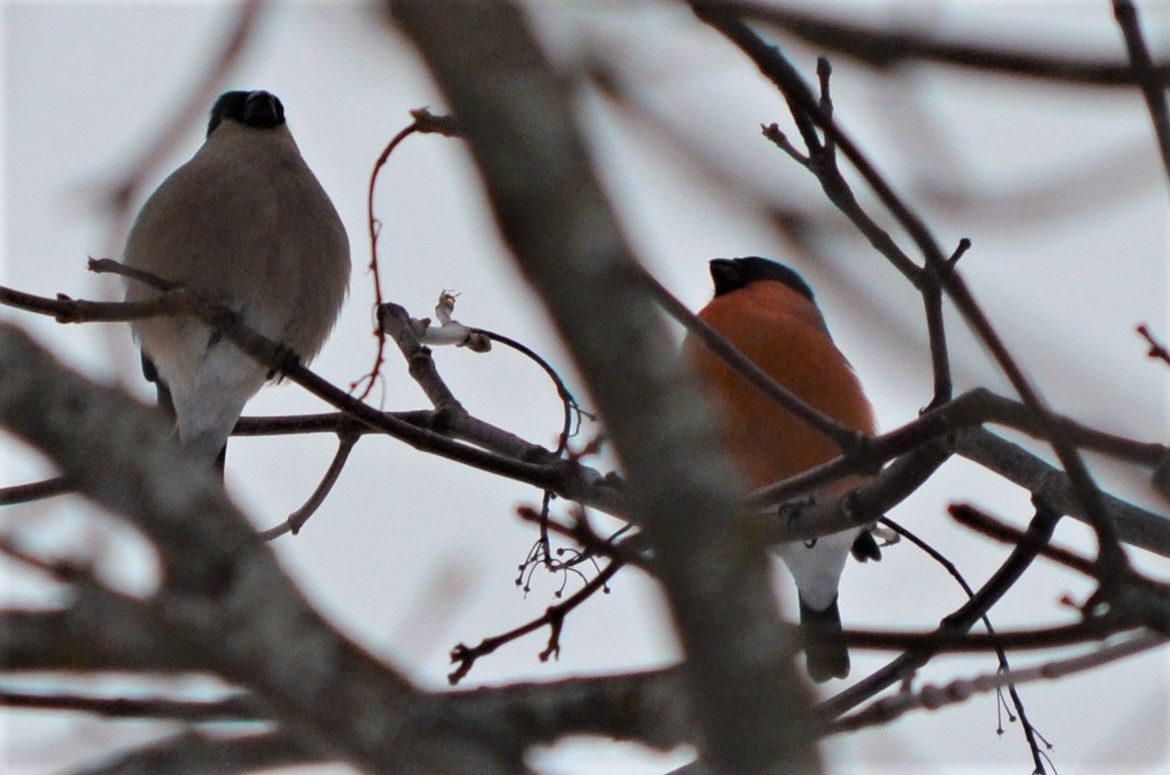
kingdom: Animalia
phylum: Chordata
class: Aves
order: Passeriformes
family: Fringillidae
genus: Pyrrhula
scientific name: Pyrrhula pyrrhula
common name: Eurasian bullfinch
